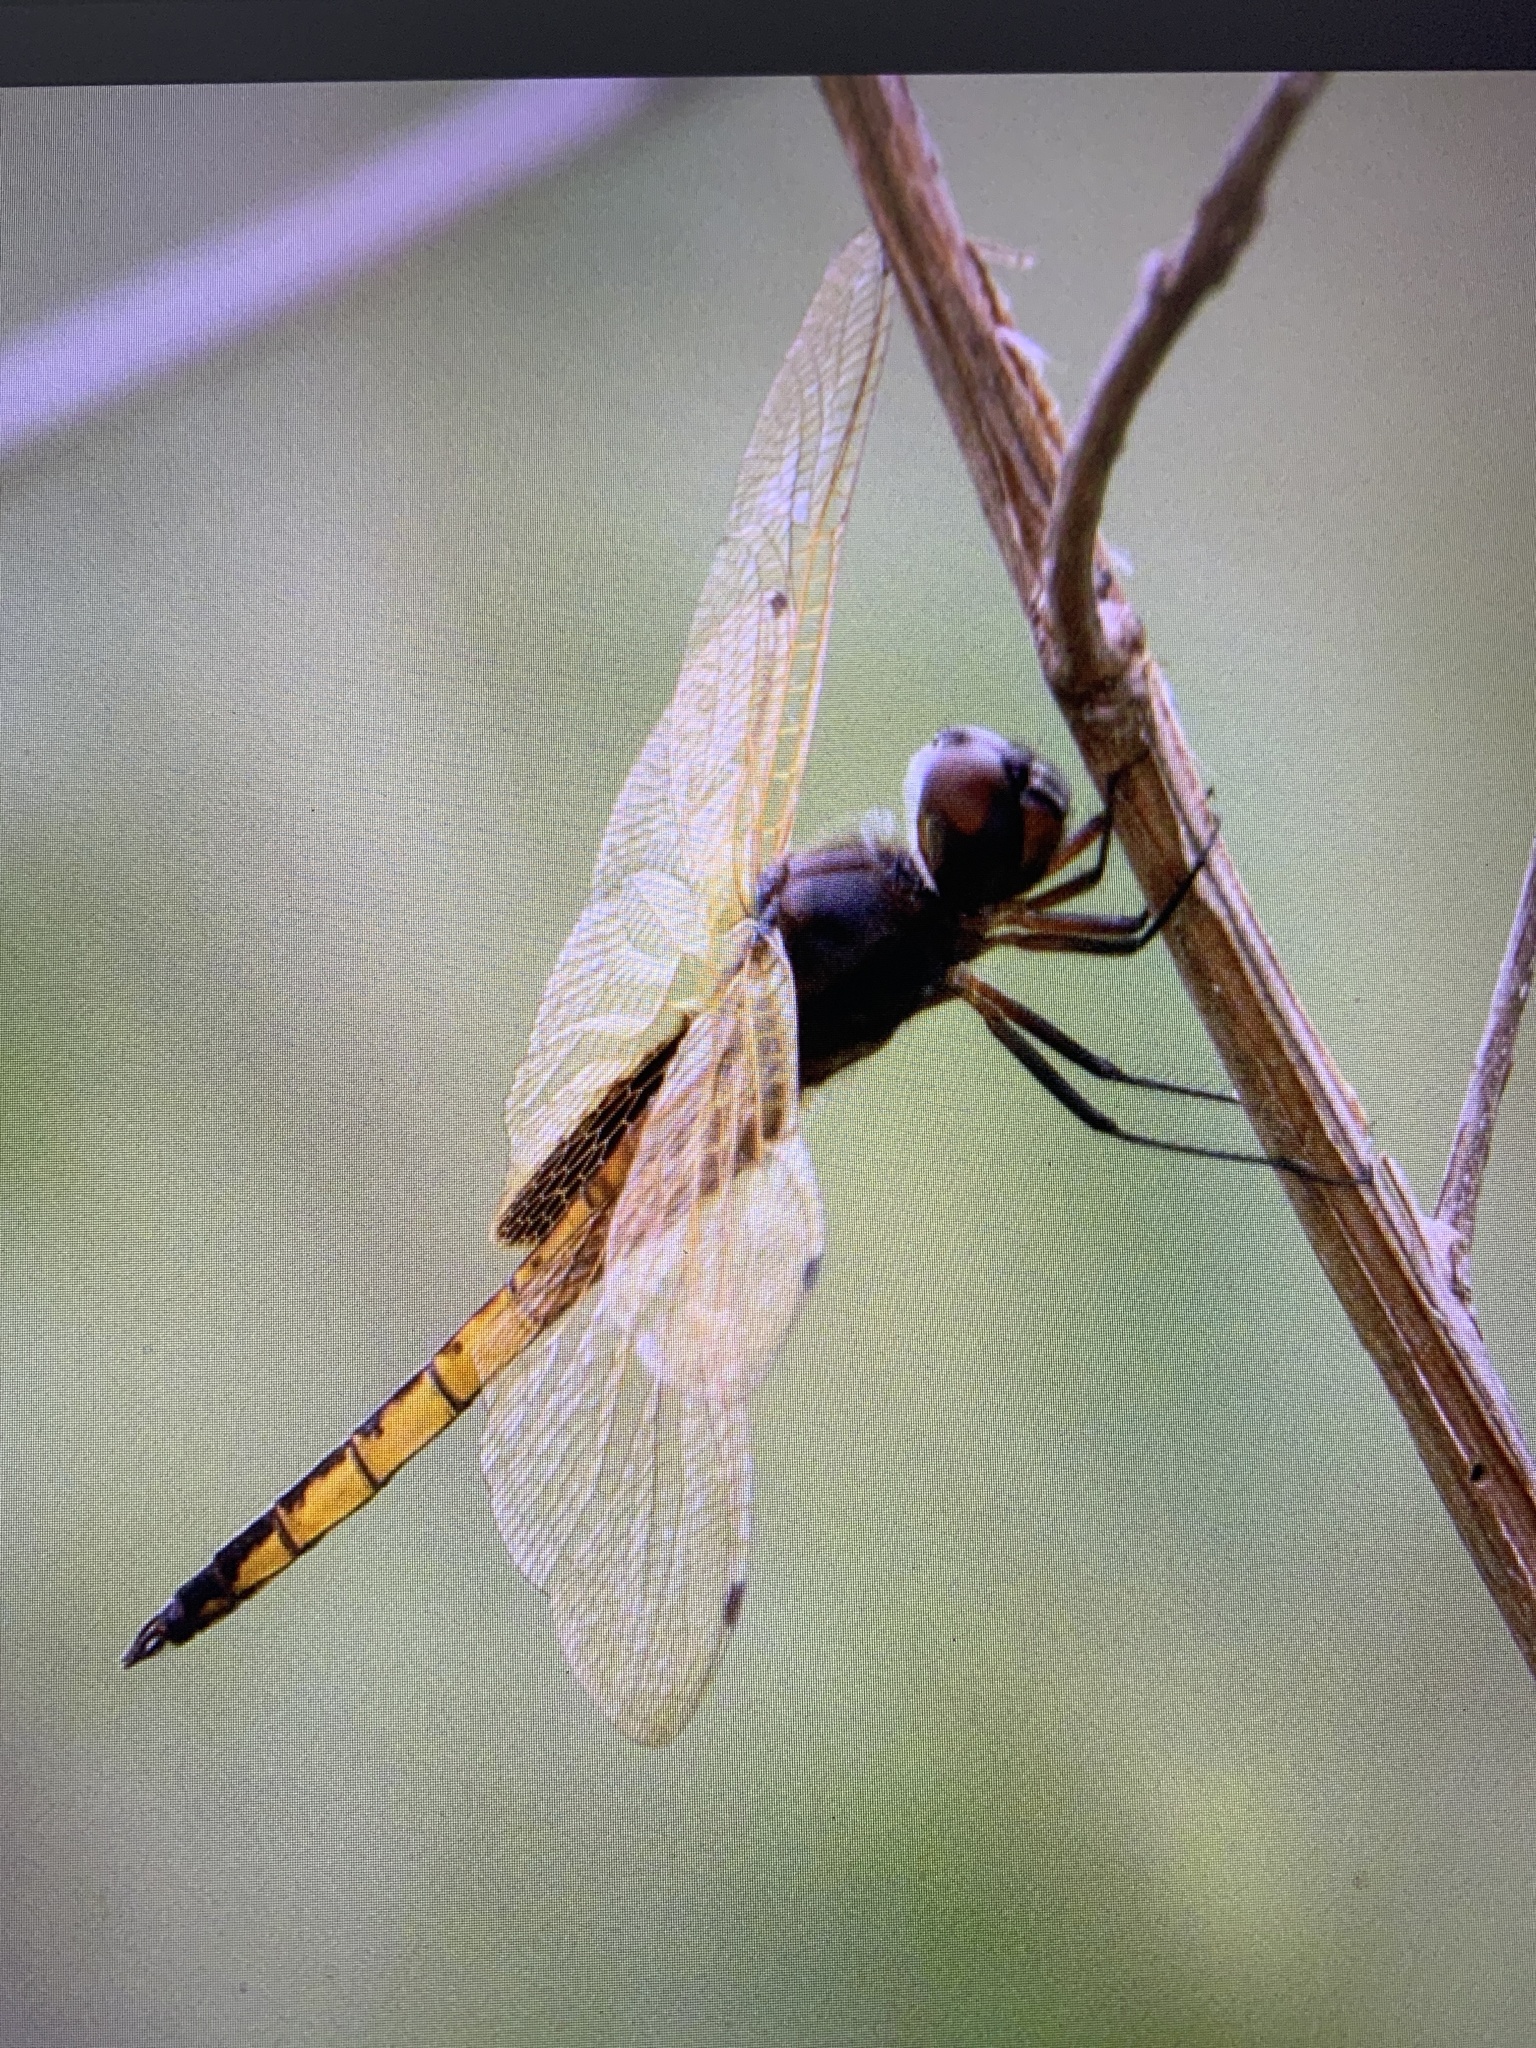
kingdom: Animalia
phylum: Arthropoda
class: Insecta
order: Odonata
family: Libellulidae
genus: Miathyria
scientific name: Miathyria marcella
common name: Hyacinth glider
